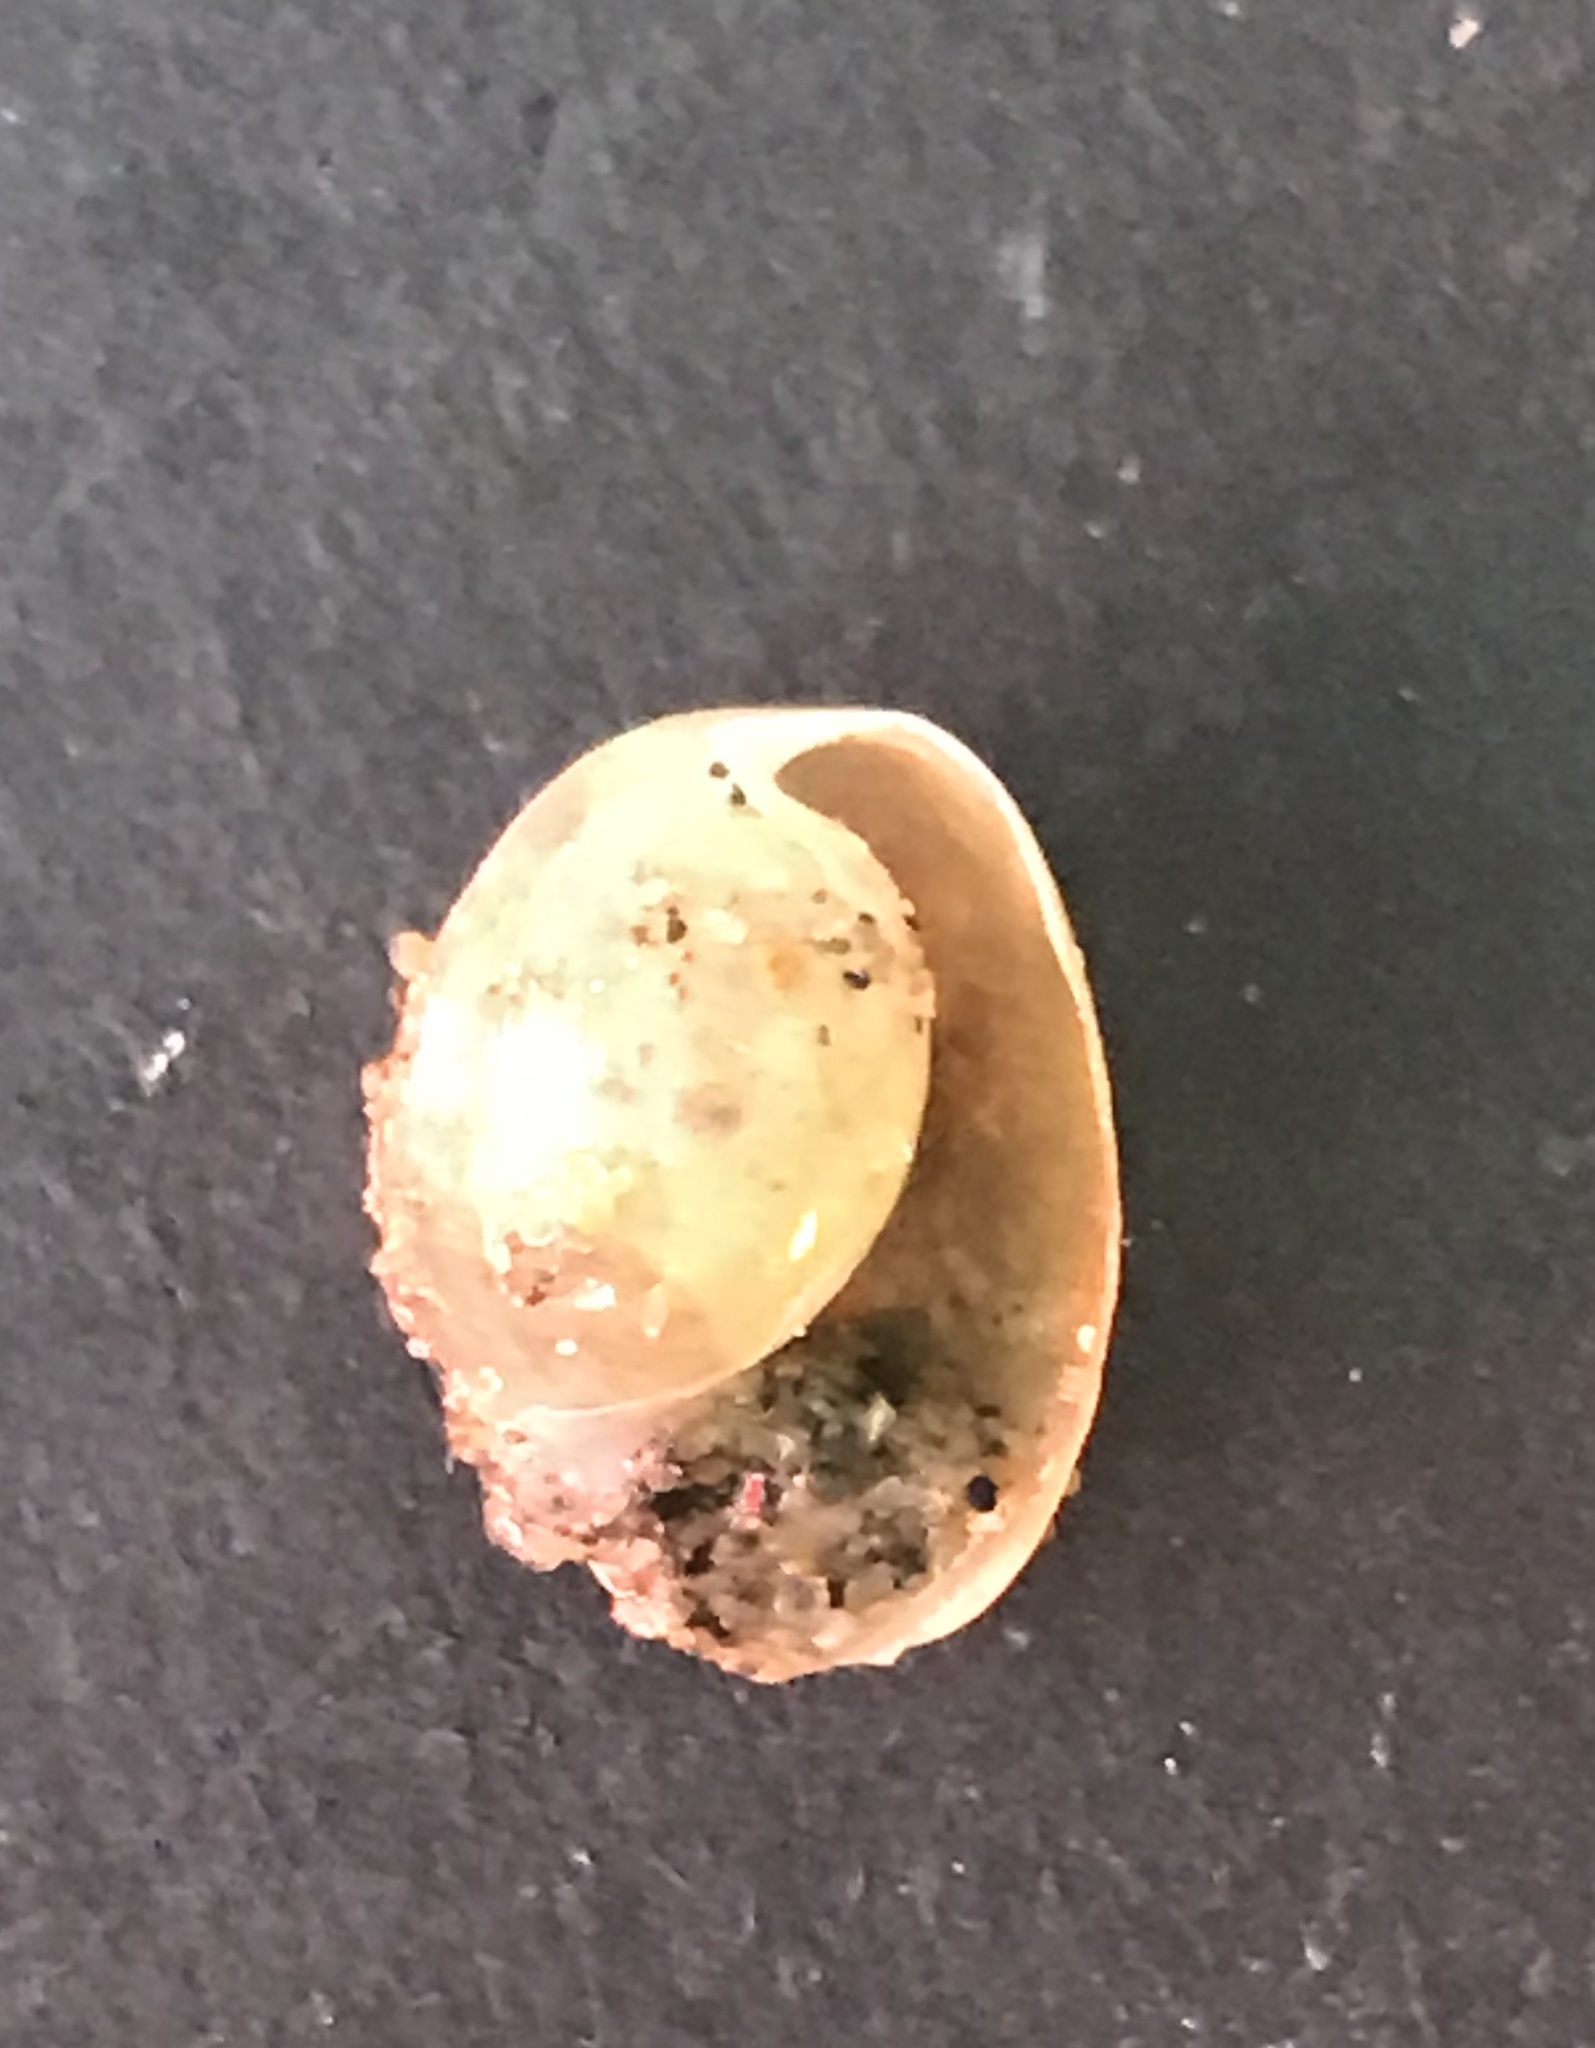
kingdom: Animalia
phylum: Mollusca
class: Gastropoda
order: Cephalaspidea
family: Haminoeidae
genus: Haloa
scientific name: Haloa japonica
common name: Japanese bubble snail
